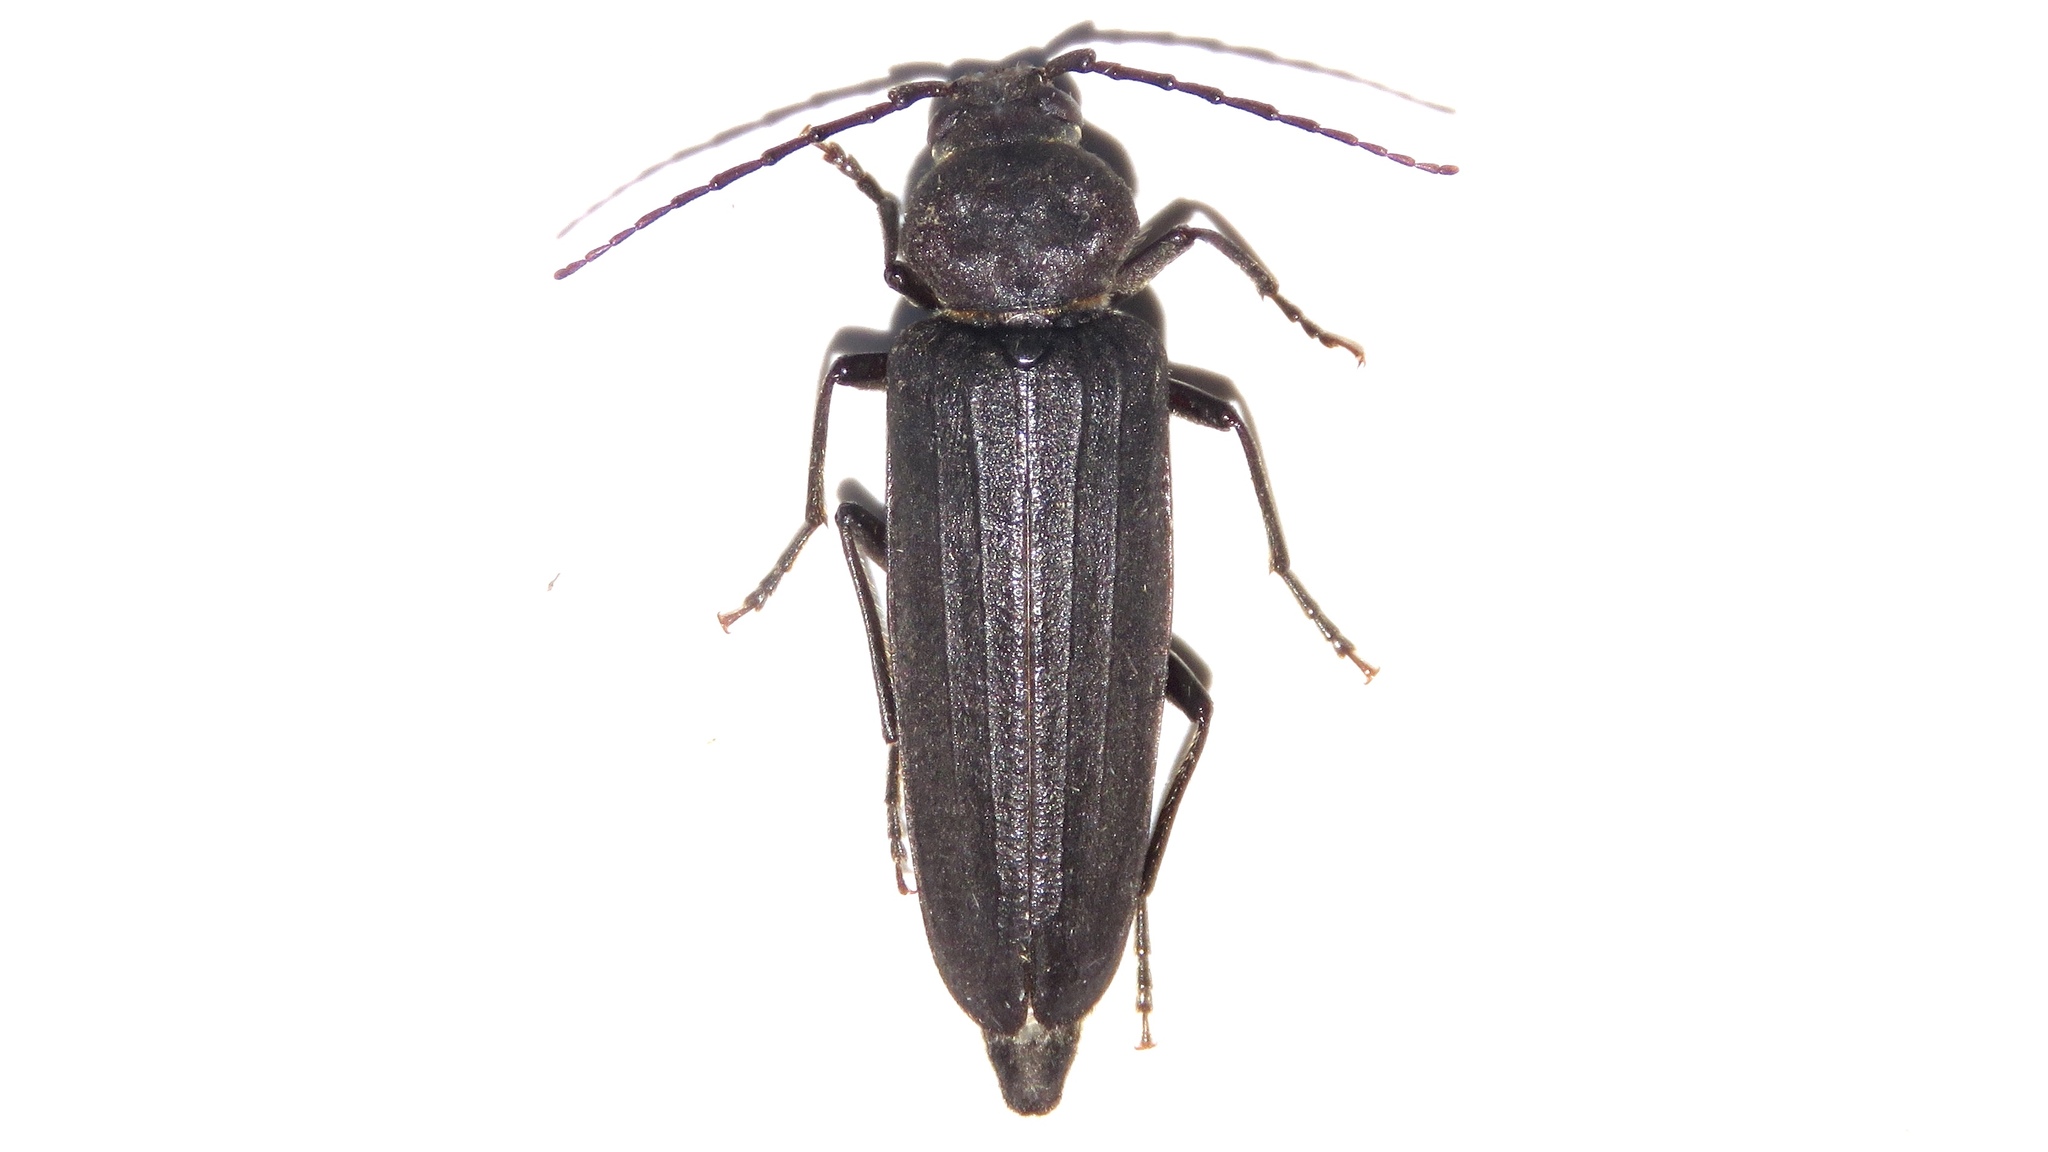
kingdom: Animalia
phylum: Arthropoda
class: Insecta
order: Coleoptera
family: Cerambycidae
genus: Arhopalus
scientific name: Arhopalus foveicollis
